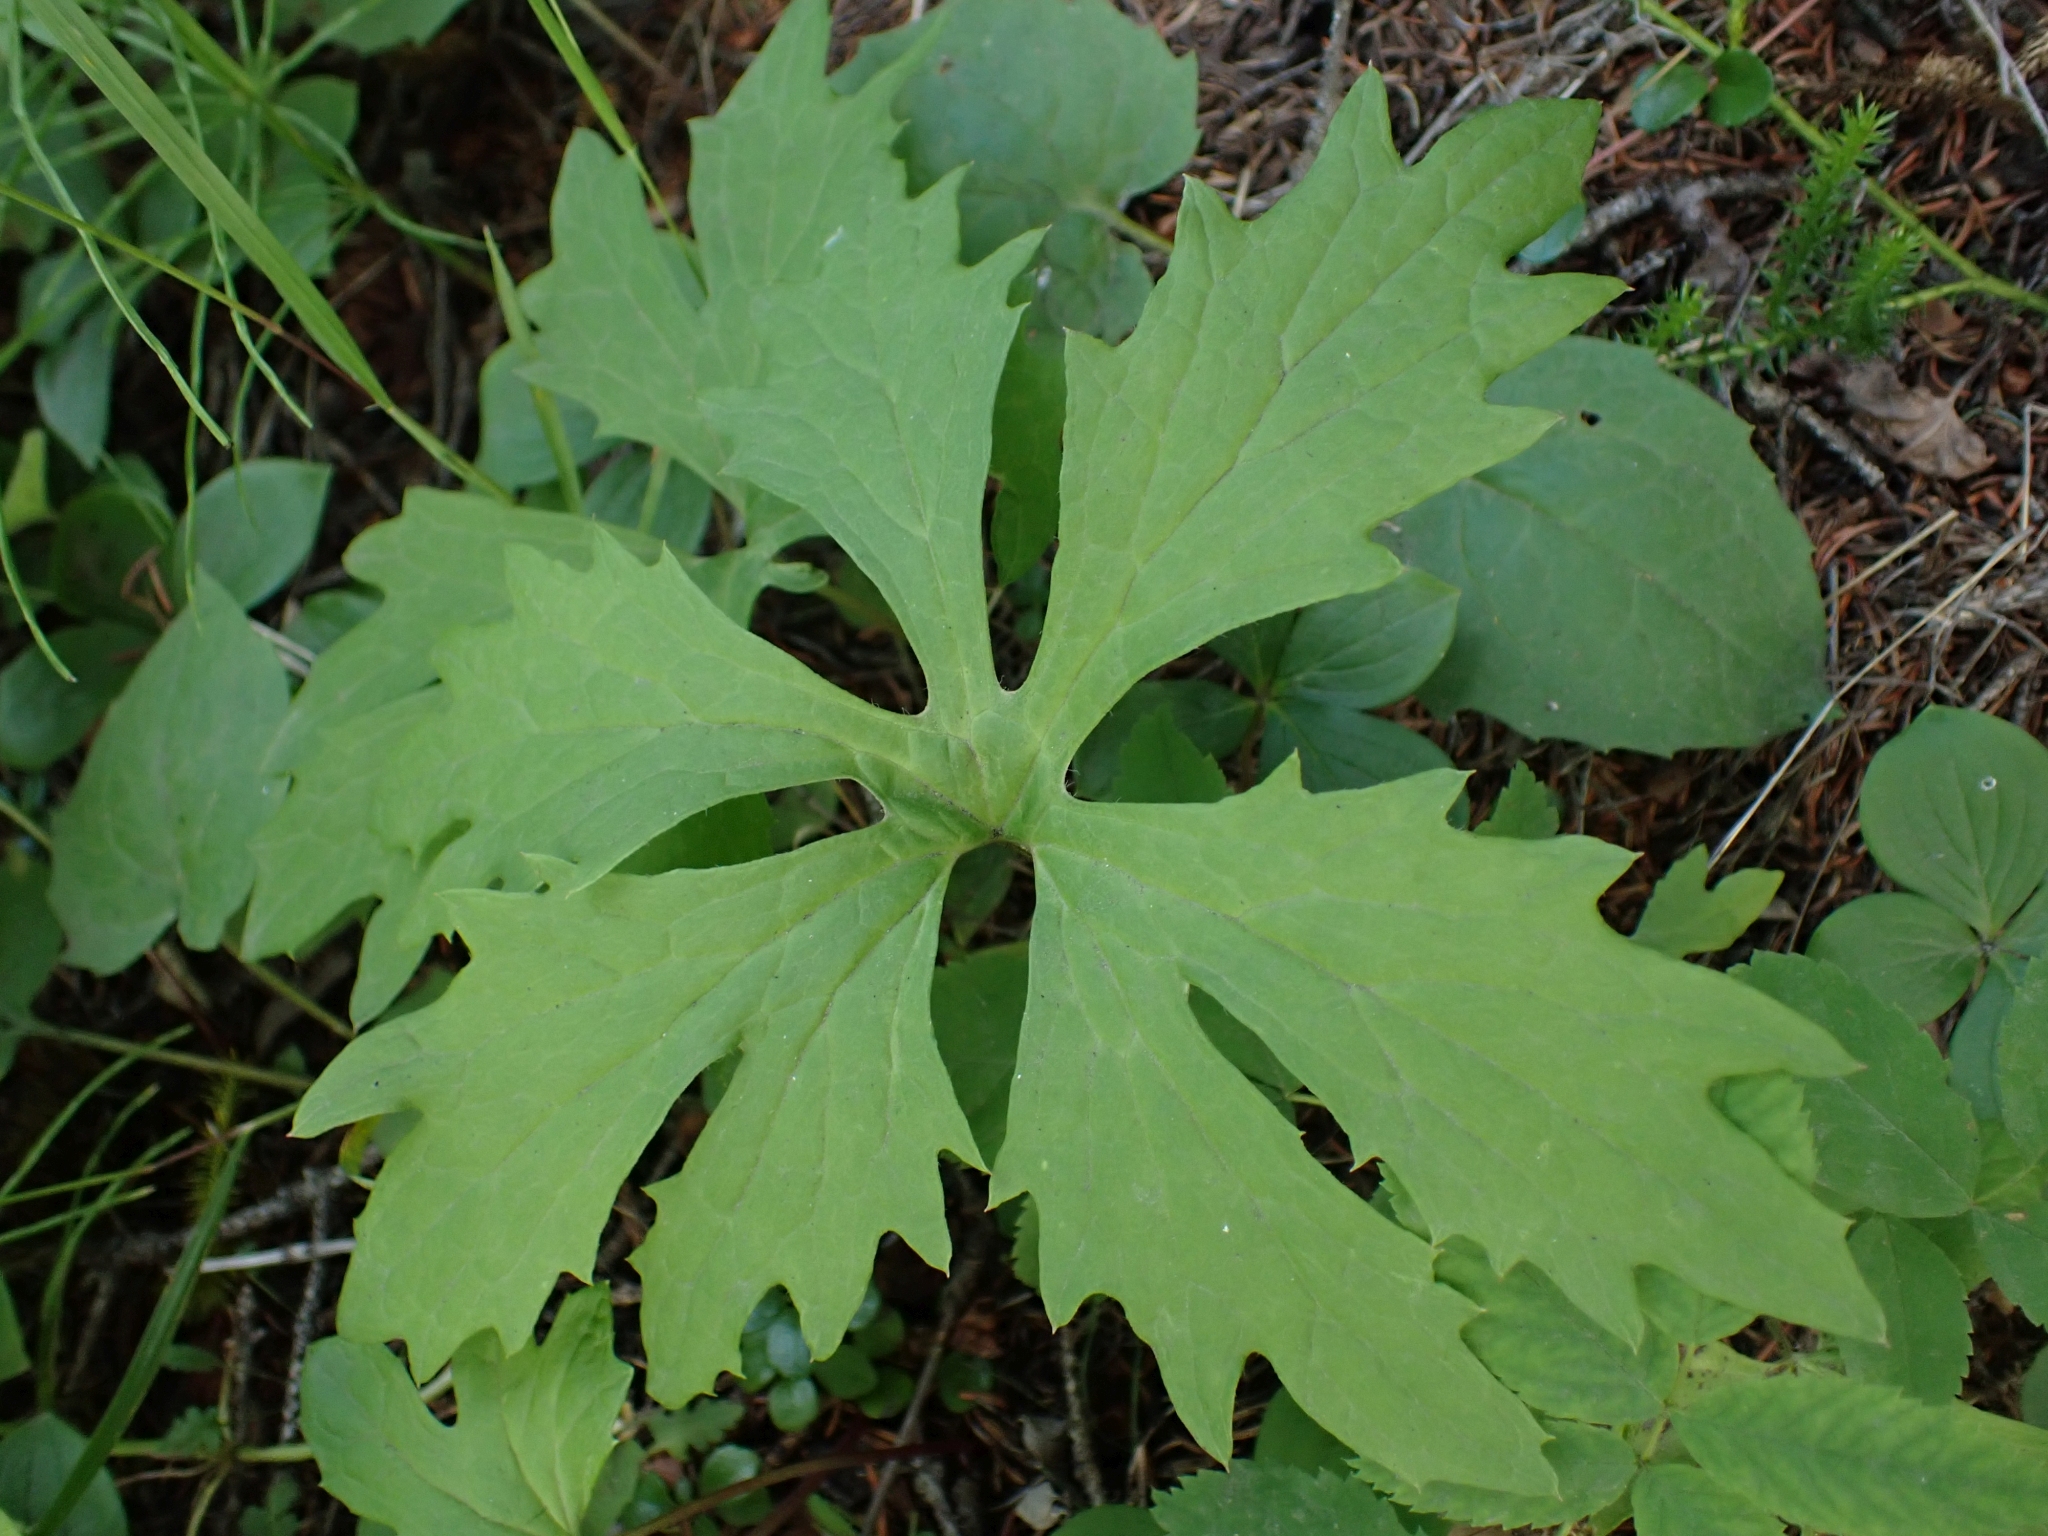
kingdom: Plantae
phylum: Tracheophyta
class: Magnoliopsida
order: Asterales
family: Asteraceae
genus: Petasites
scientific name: Petasites frigidus
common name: Arctic butterbur
